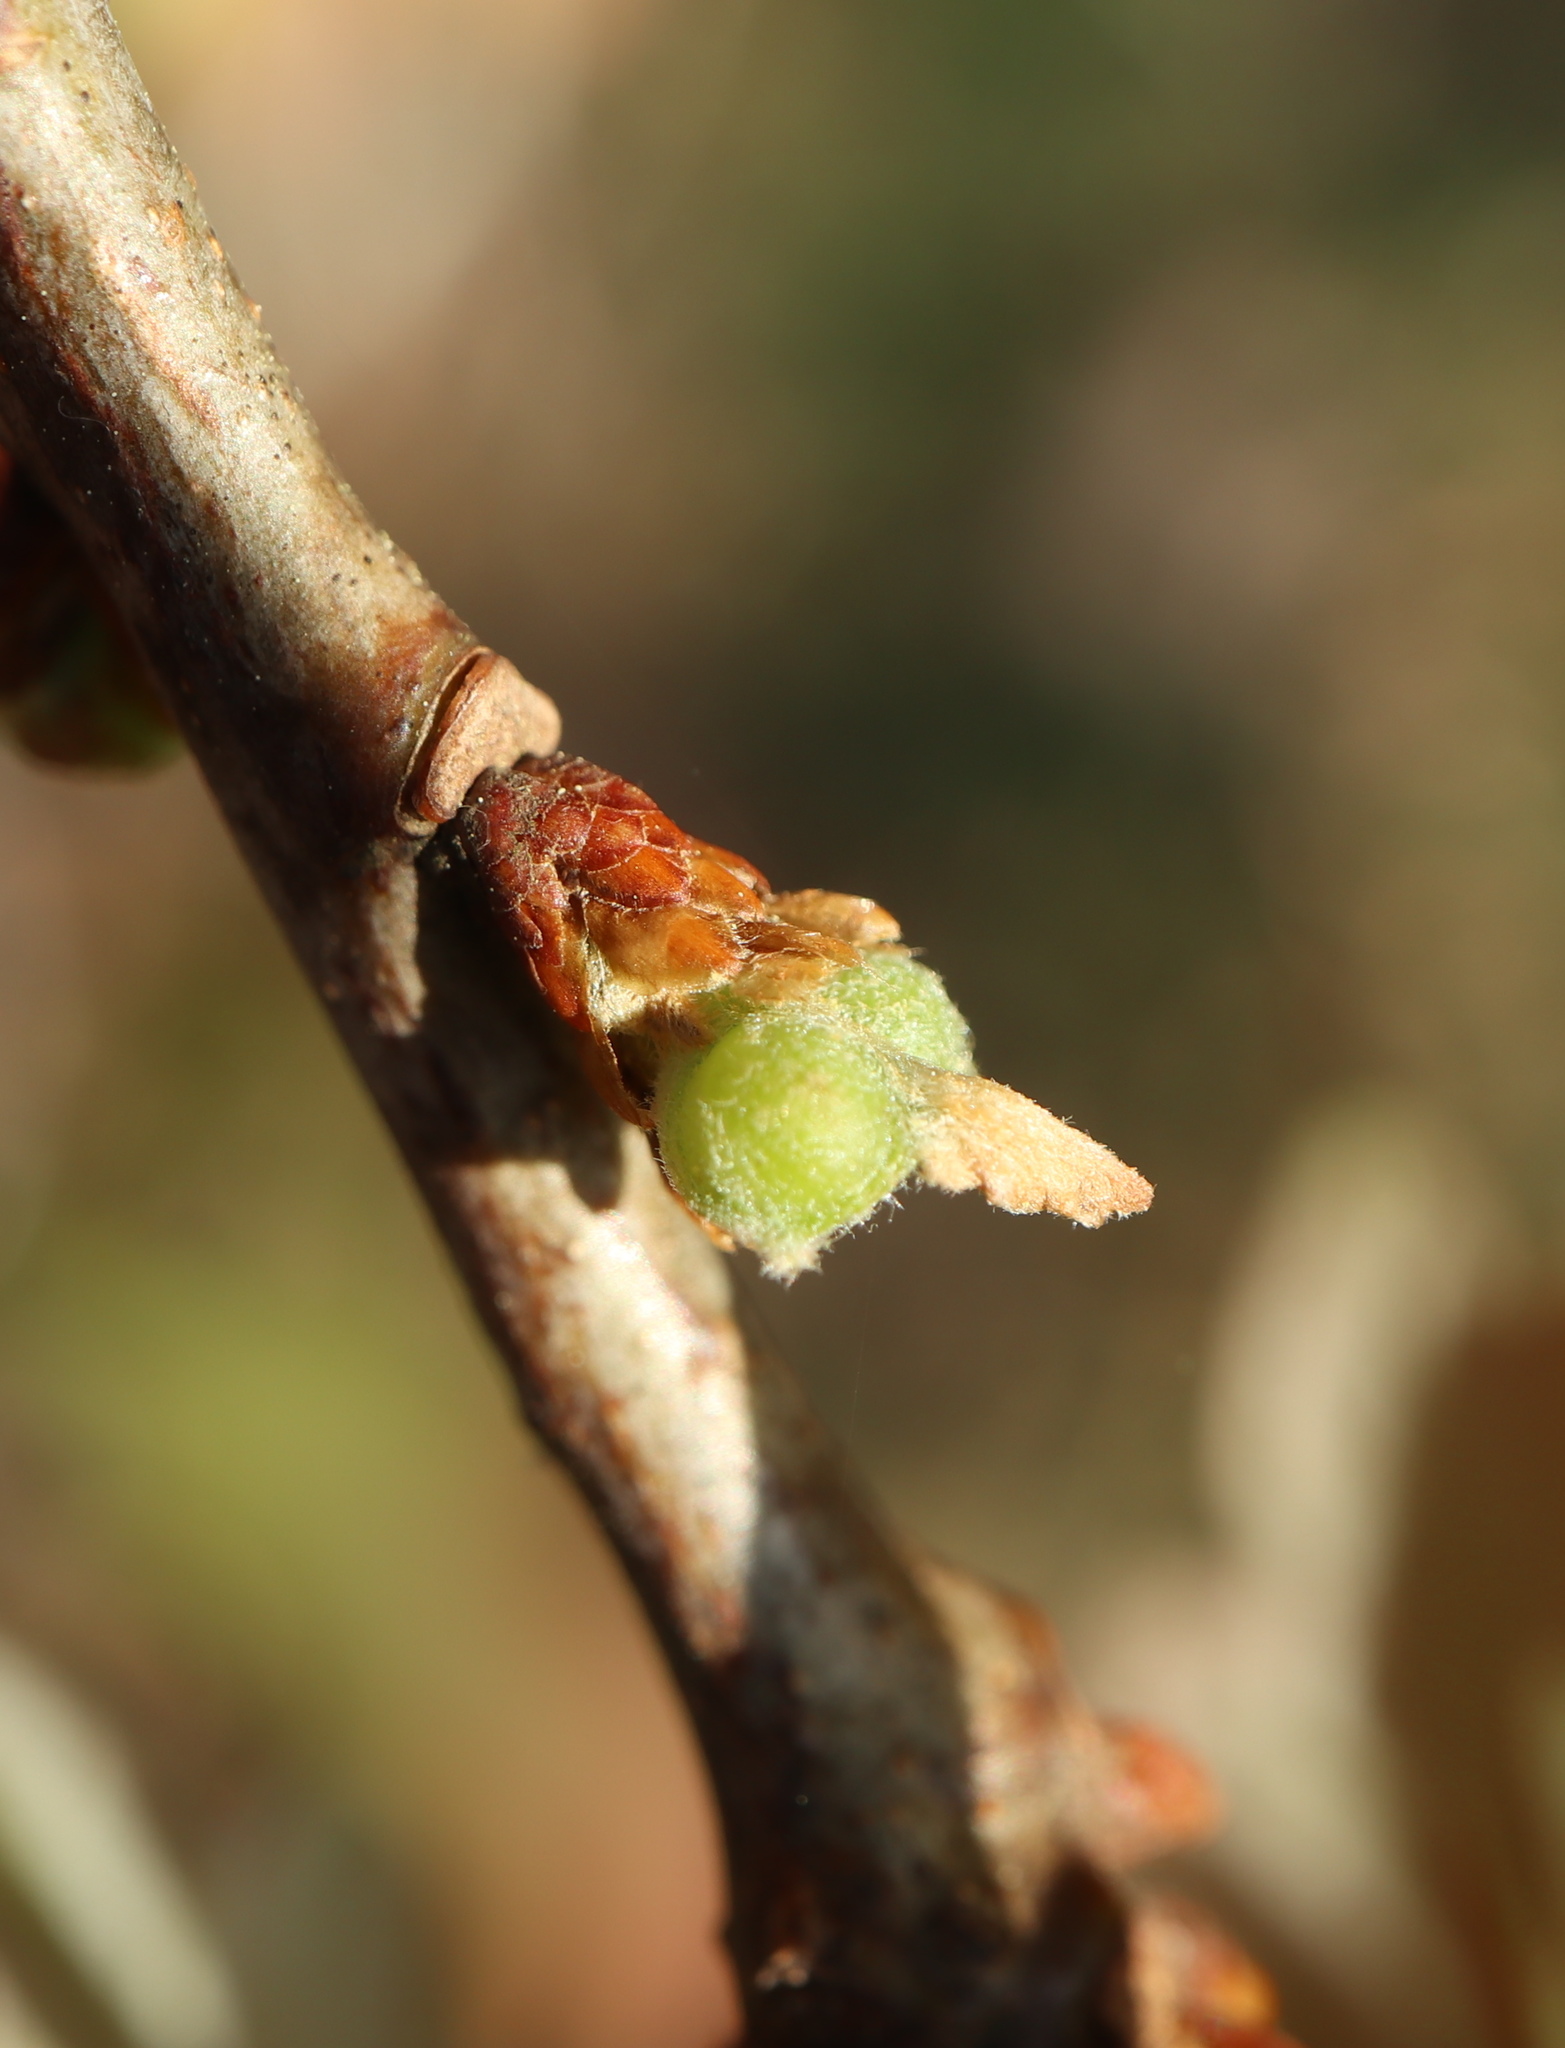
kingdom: Animalia
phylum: Arthropoda
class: Insecta
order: Hymenoptera
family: Cynipidae
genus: Andricus
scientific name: Andricus
